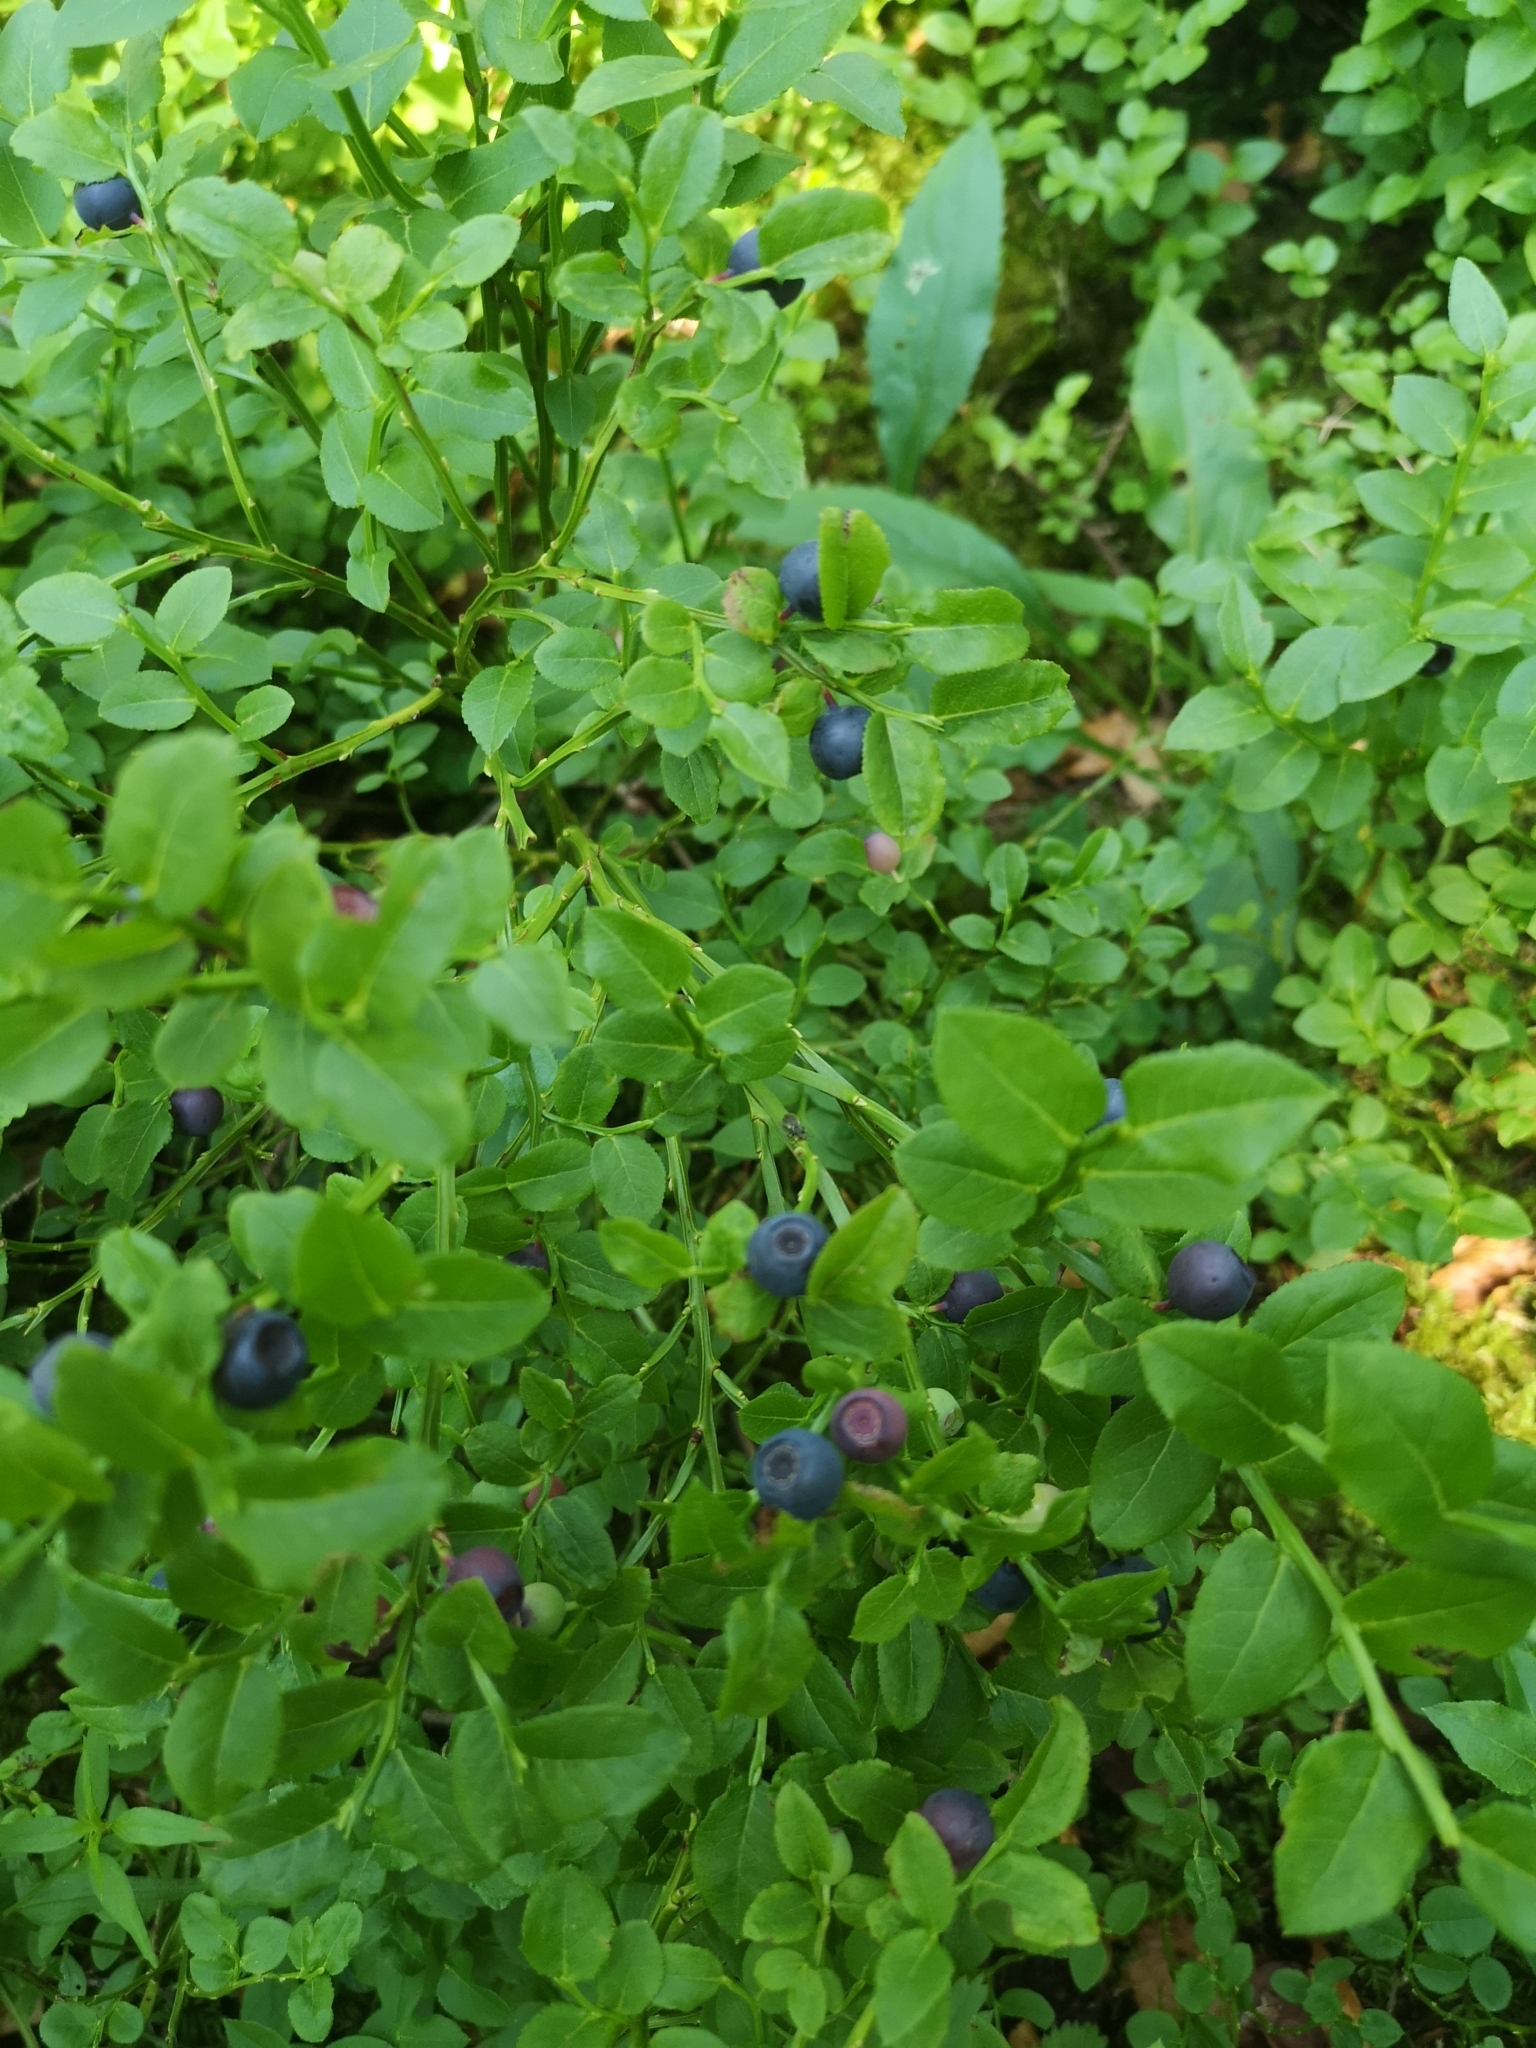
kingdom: Plantae
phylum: Tracheophyta
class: Magnoliopsida
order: Ericales
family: Ericaceae
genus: Vaccinium
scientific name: Vaccinium myrtillus
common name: Bilberry
